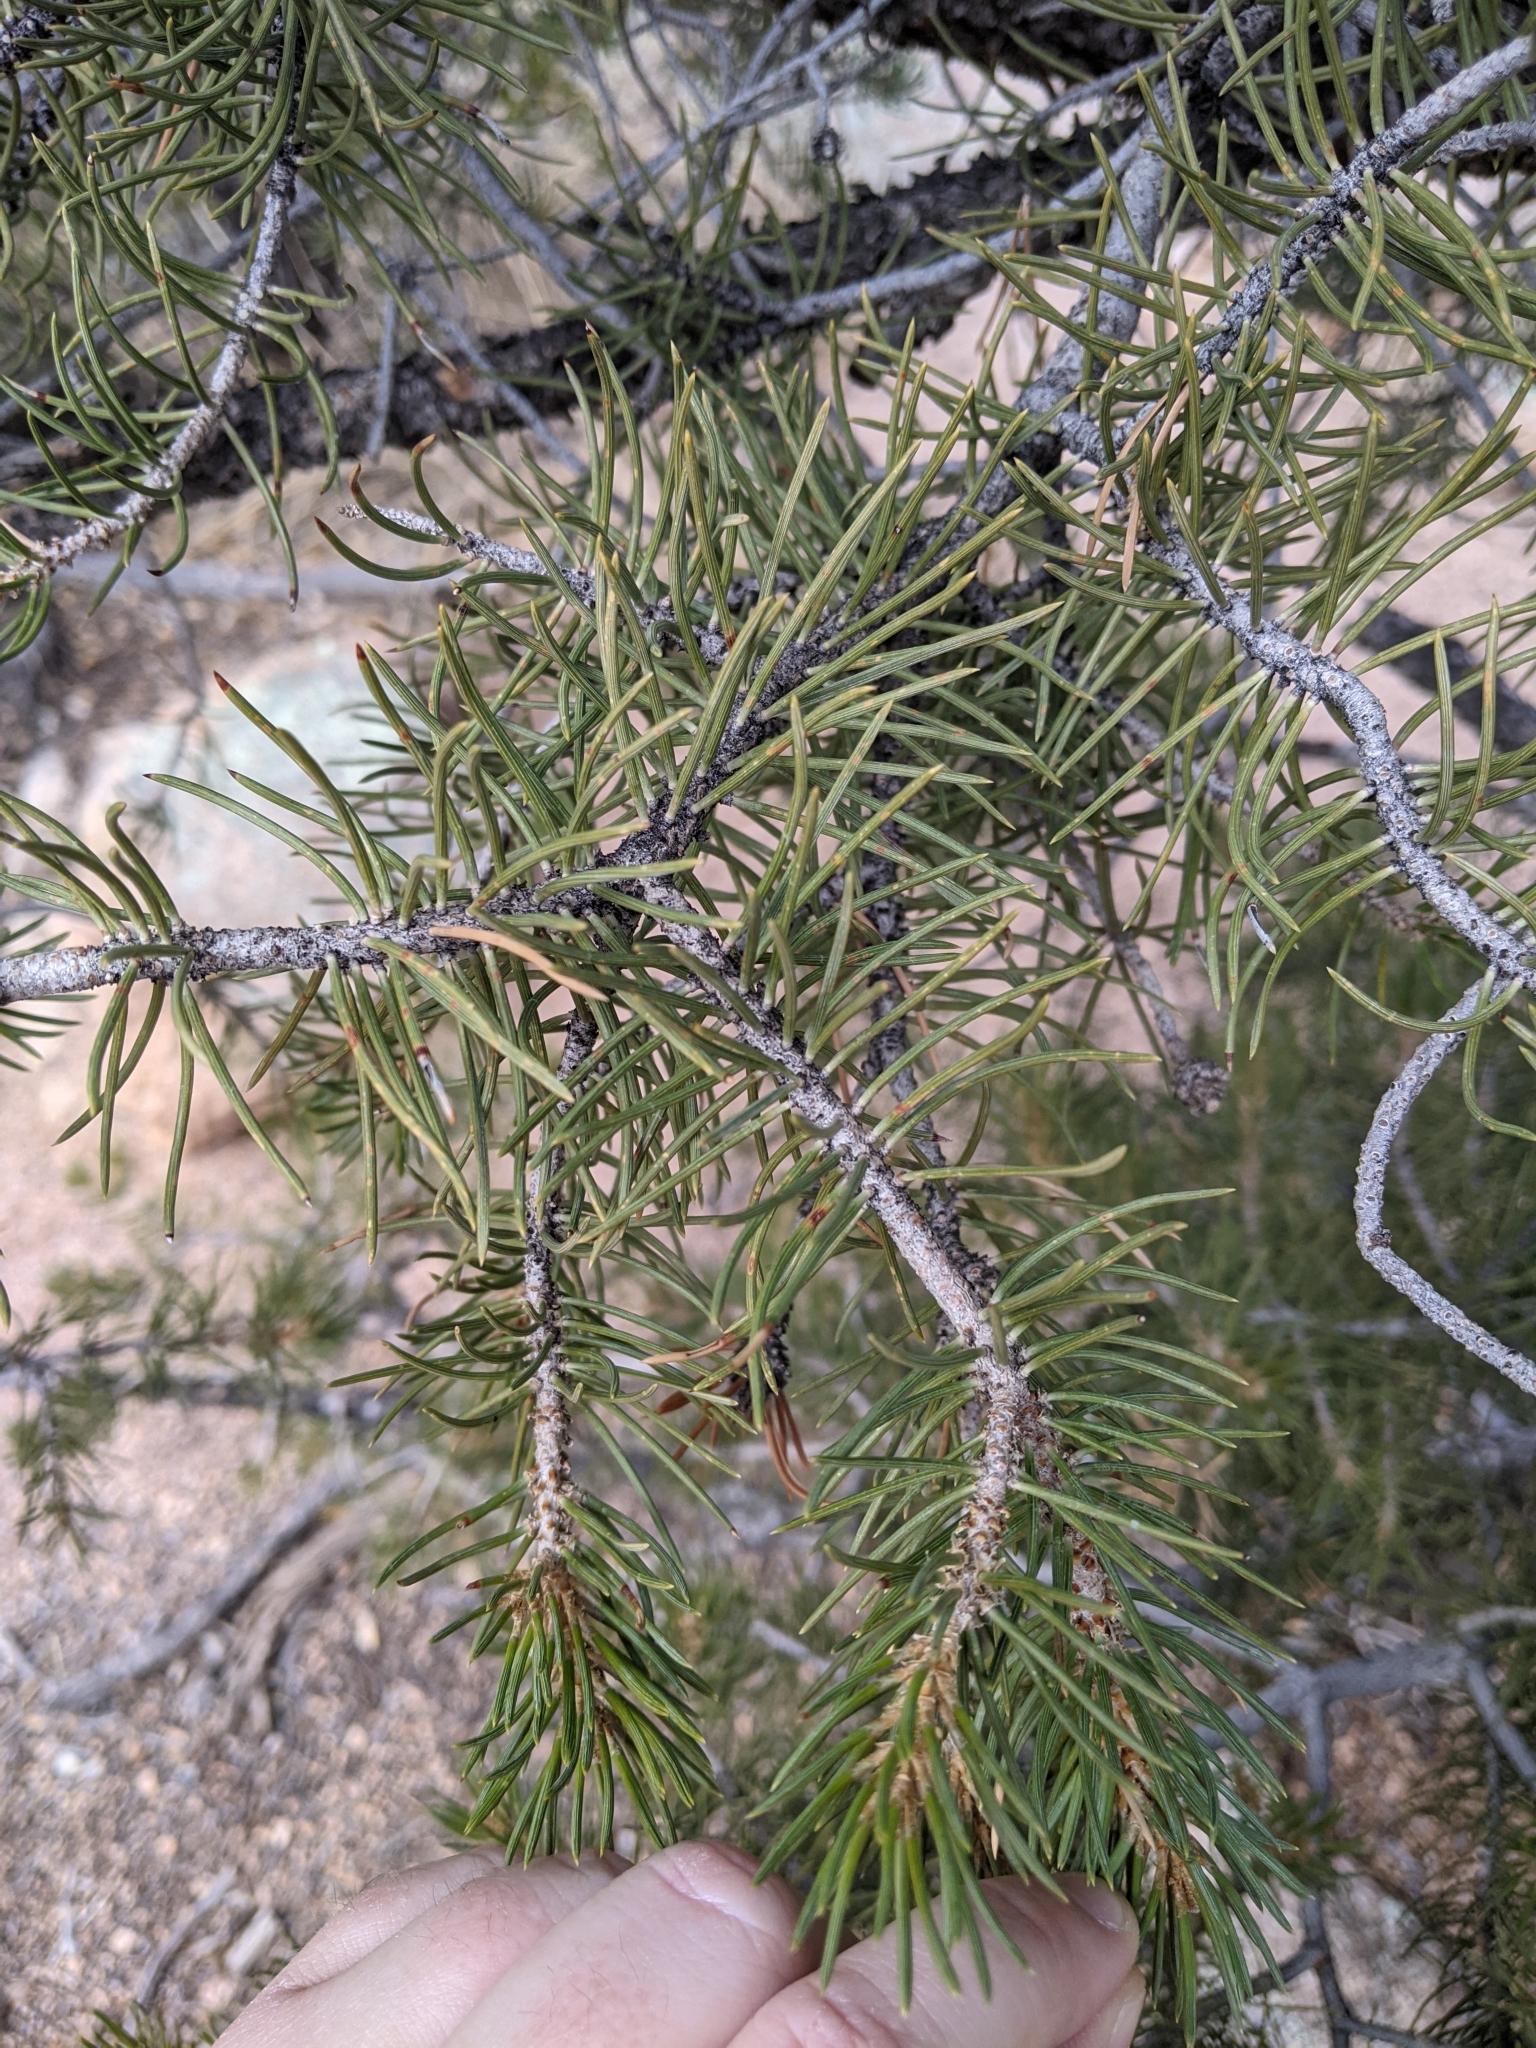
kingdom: Plantae
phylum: Tracheophyta
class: Pinopsida
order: Pinales
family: Pinaceae
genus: Pinus
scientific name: Pinus monophylla
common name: One-leaved nut pine
